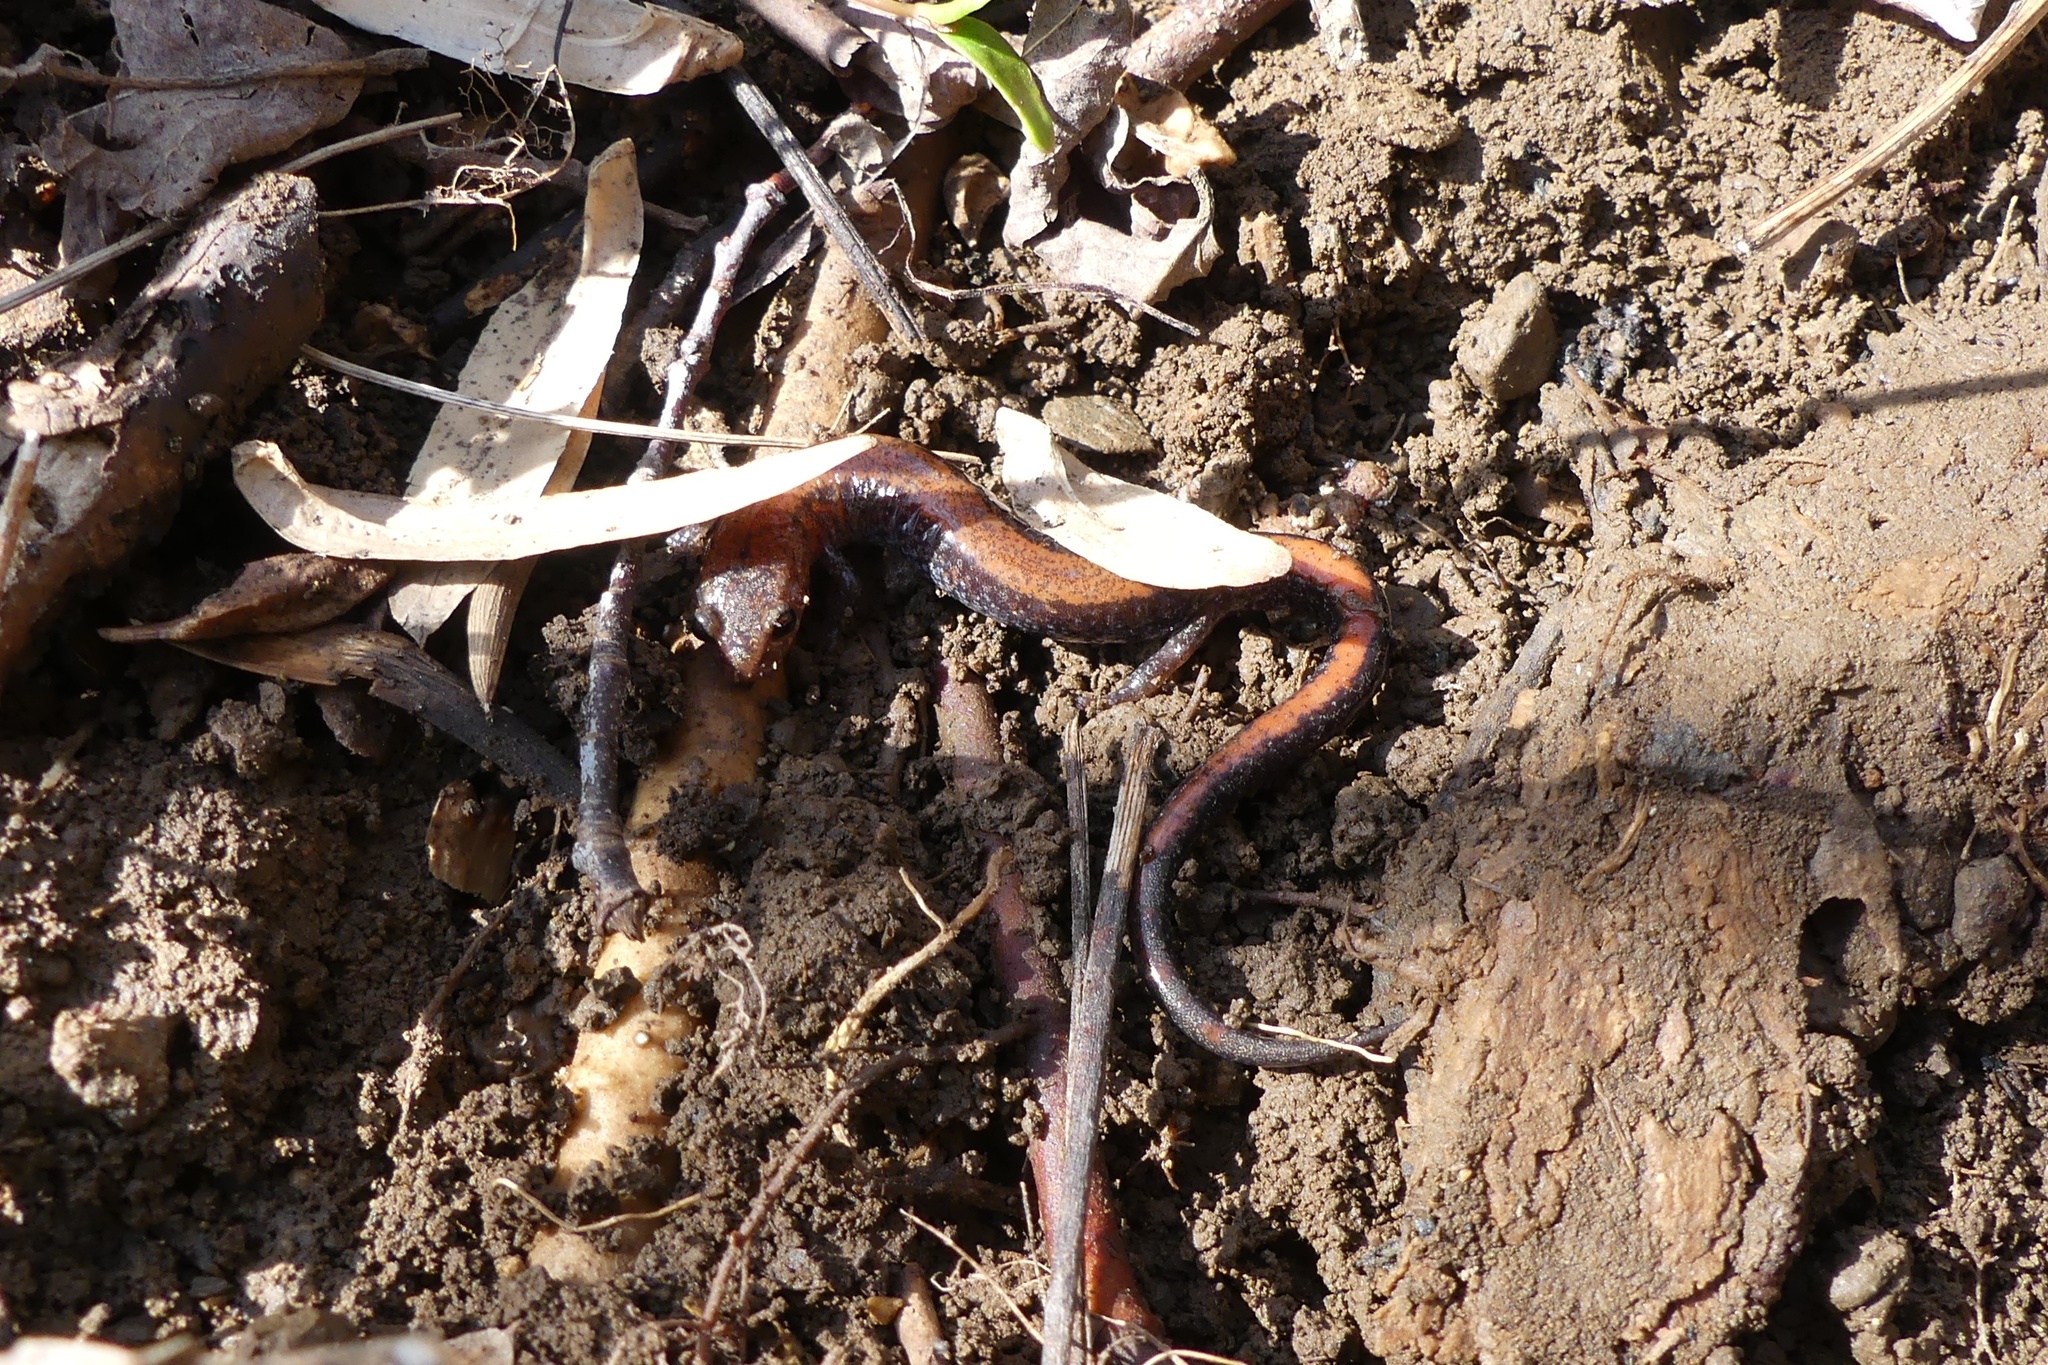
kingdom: Animalia
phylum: Chordata
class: Amphibia
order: Caudata
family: Plethodontidae
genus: Plethodon
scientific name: Plethodon cinereus
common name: Redback salamander
